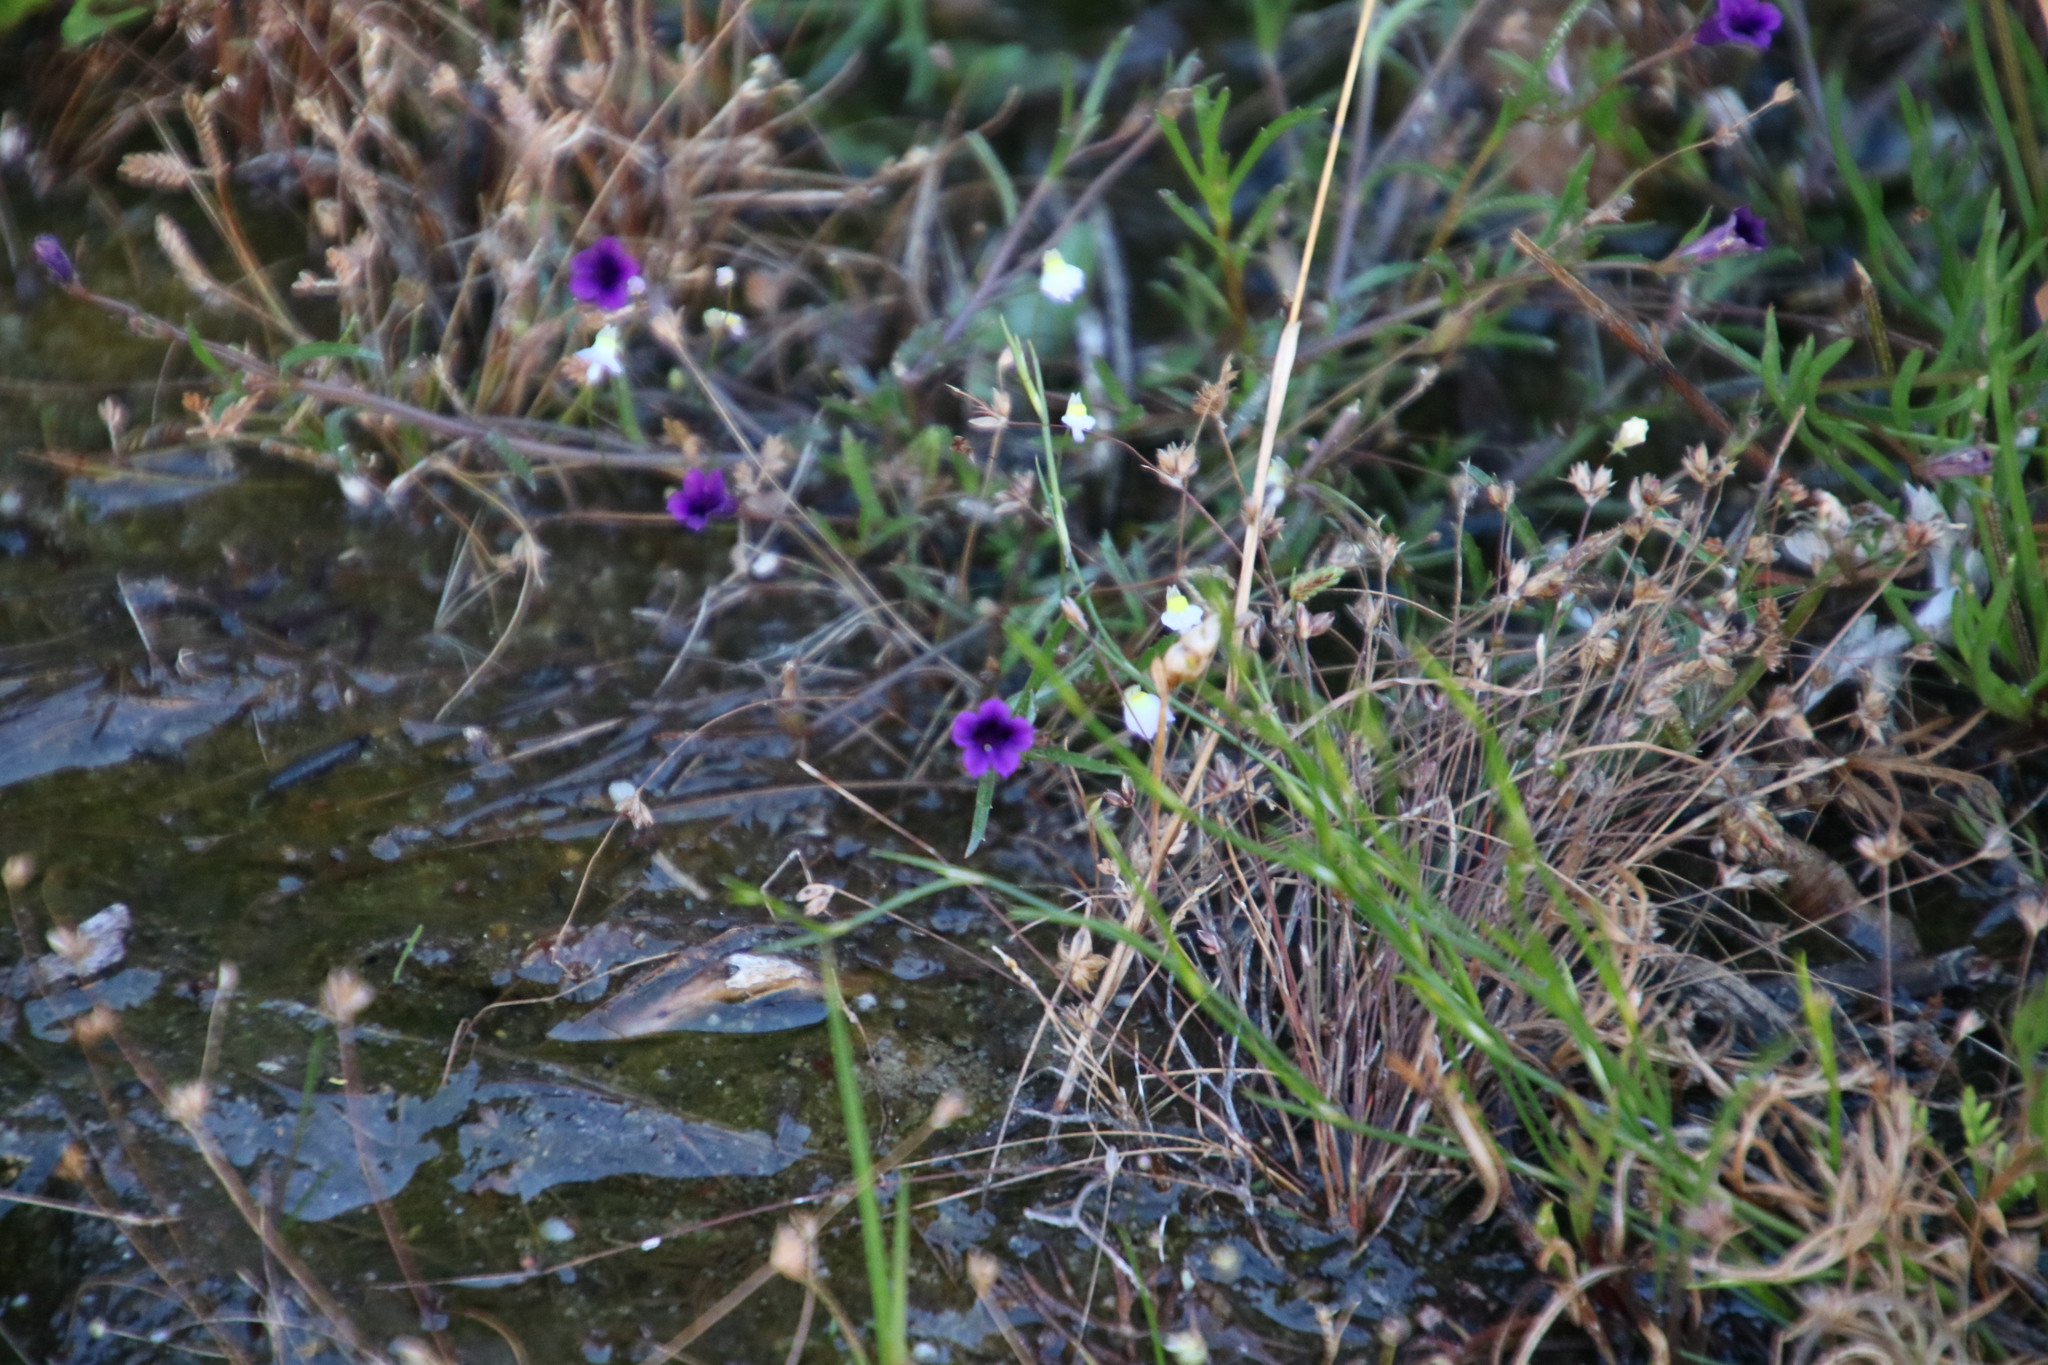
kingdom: Plantae
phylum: Tracheophyta
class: Magnoliopsida
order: Asterales
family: Campanulaceae
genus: Monopsis
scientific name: Monopsis debilis
